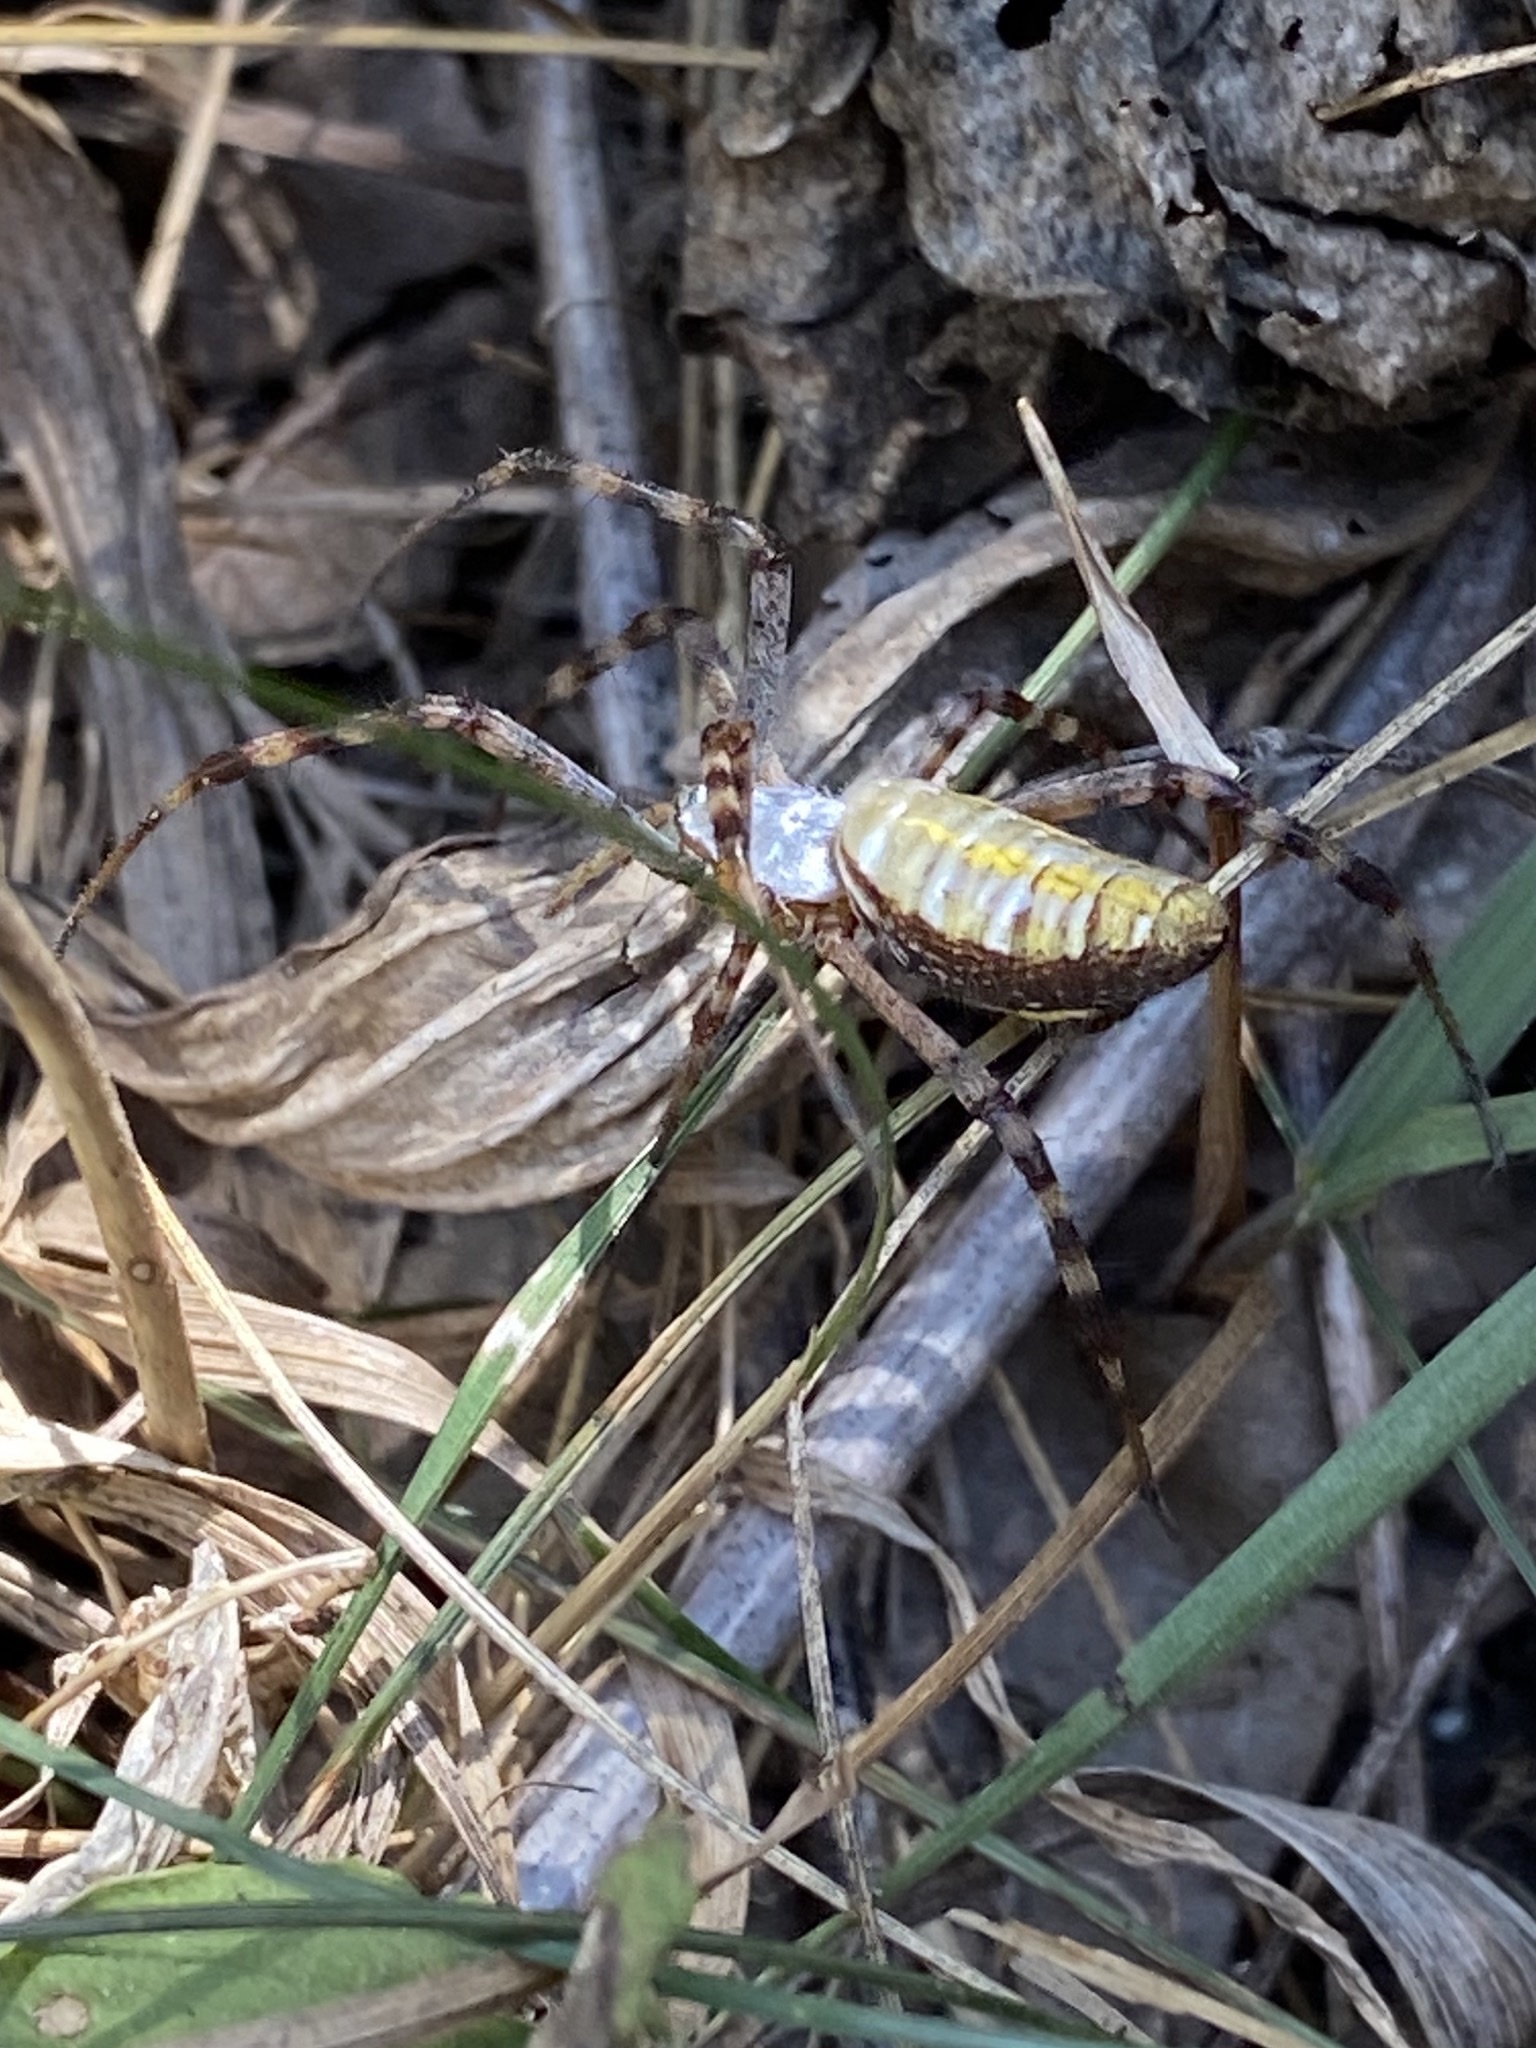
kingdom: Animalia
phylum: Arthropoda
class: Arachnida
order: Araneae
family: Araneidae
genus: Argiope
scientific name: Argiope trifasciata
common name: Banded garden spider
